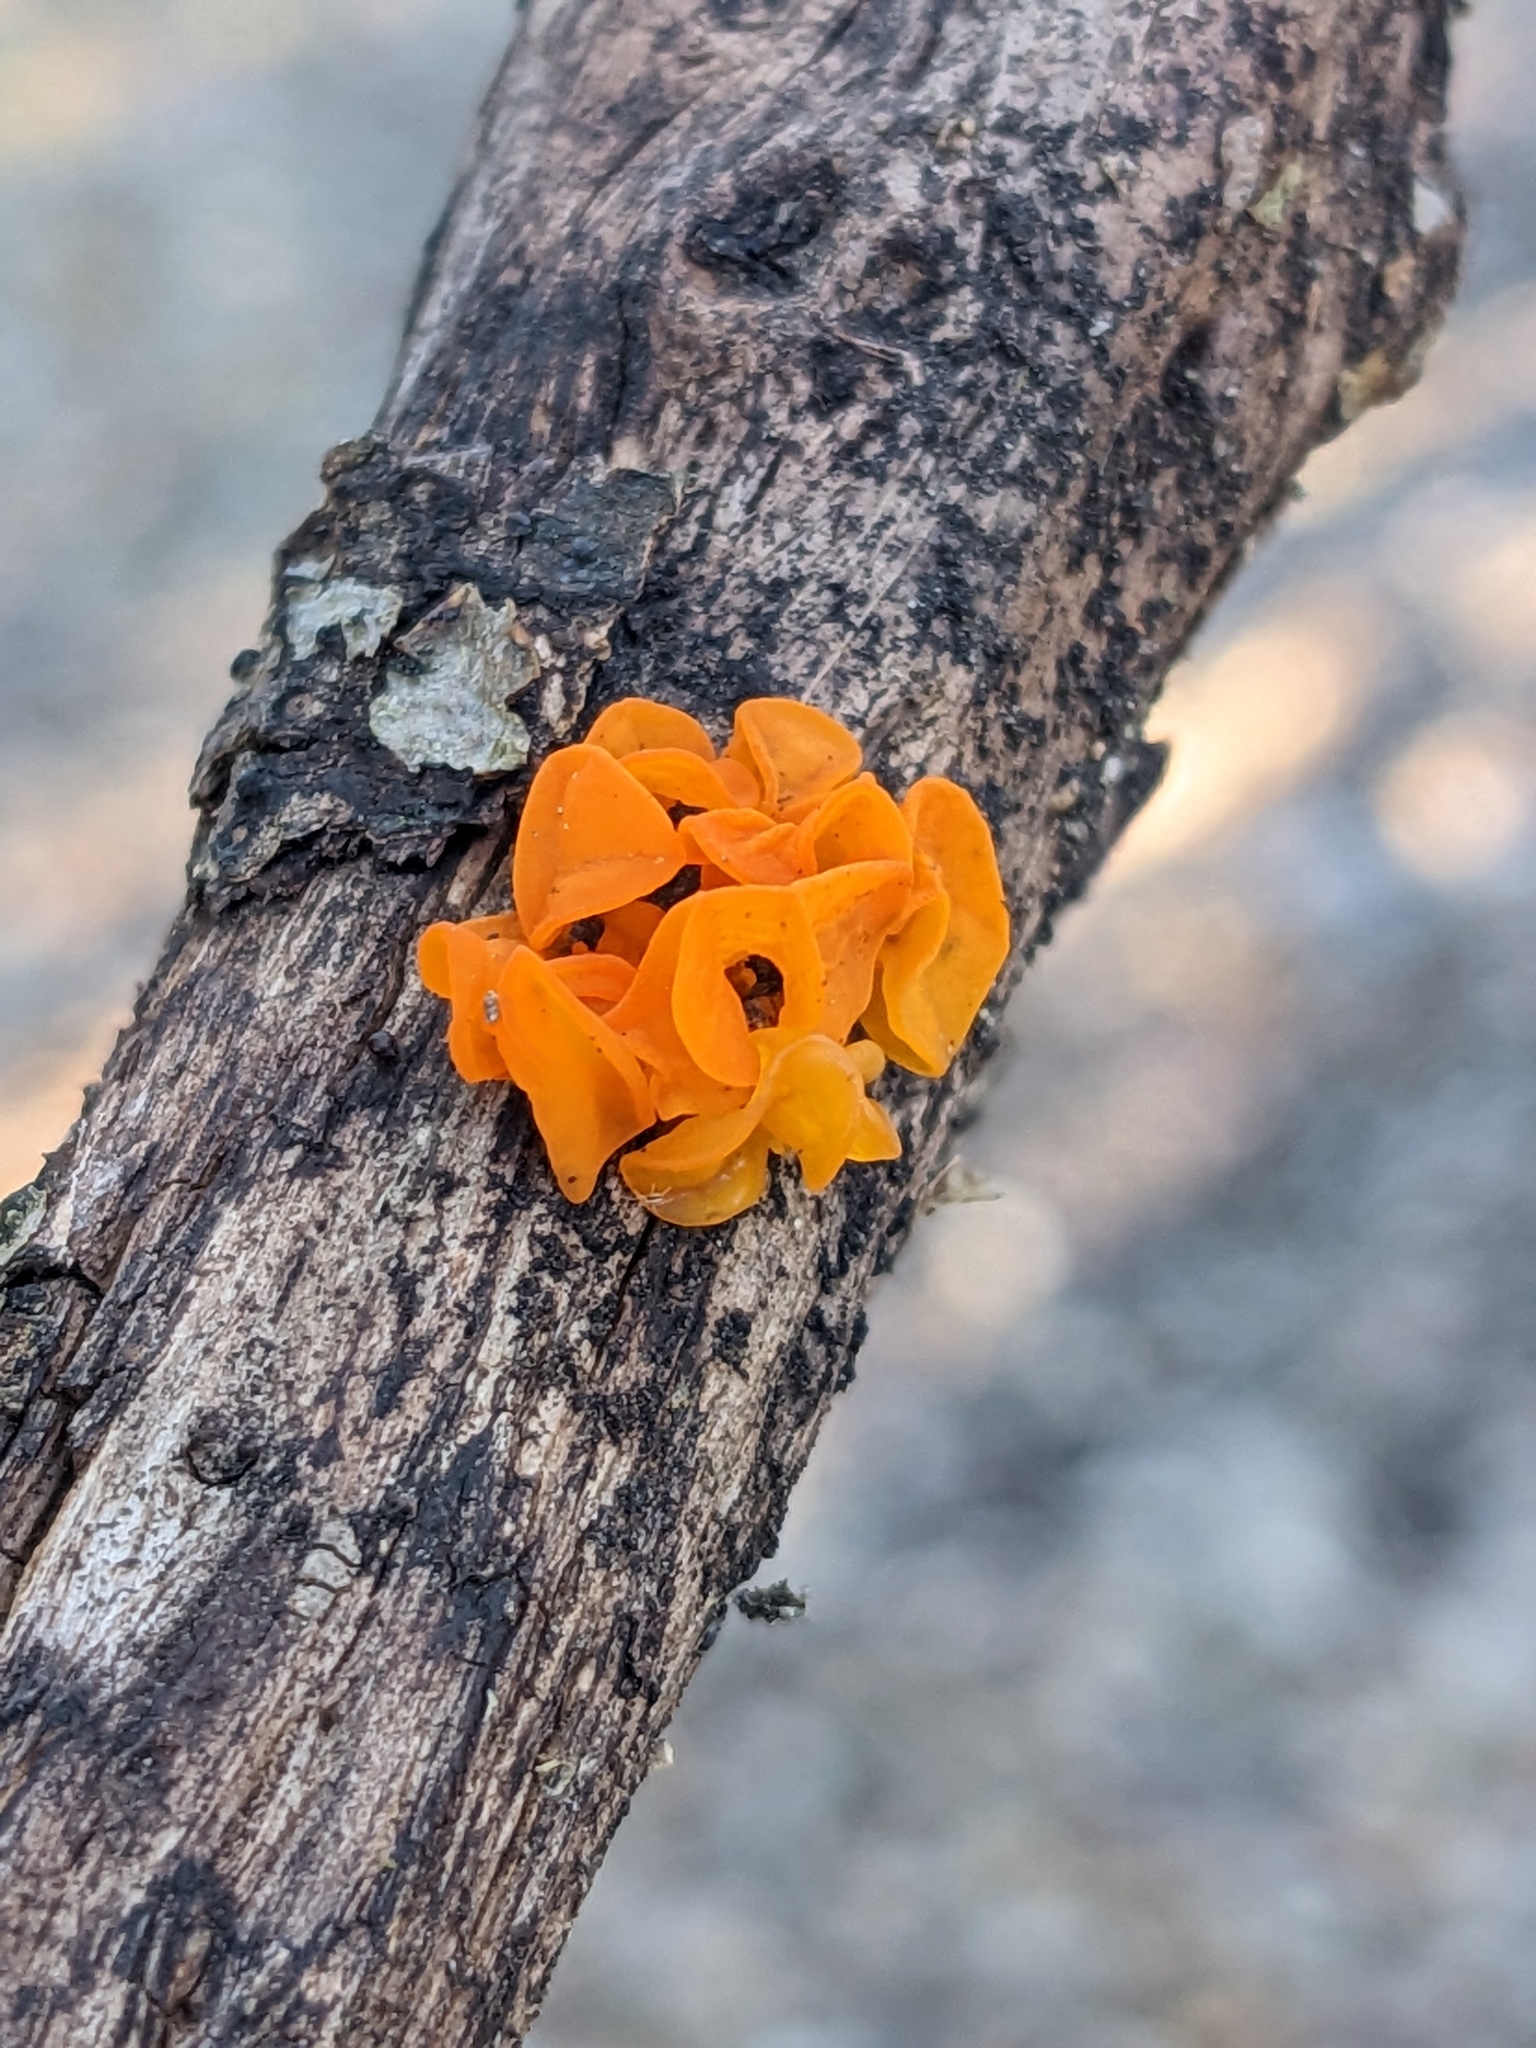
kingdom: Fungi
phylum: Basidiomycota
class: Tremellomycetes
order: Tremellales
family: Tremellaceae
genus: Tremella
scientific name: Tremella mesenterica
